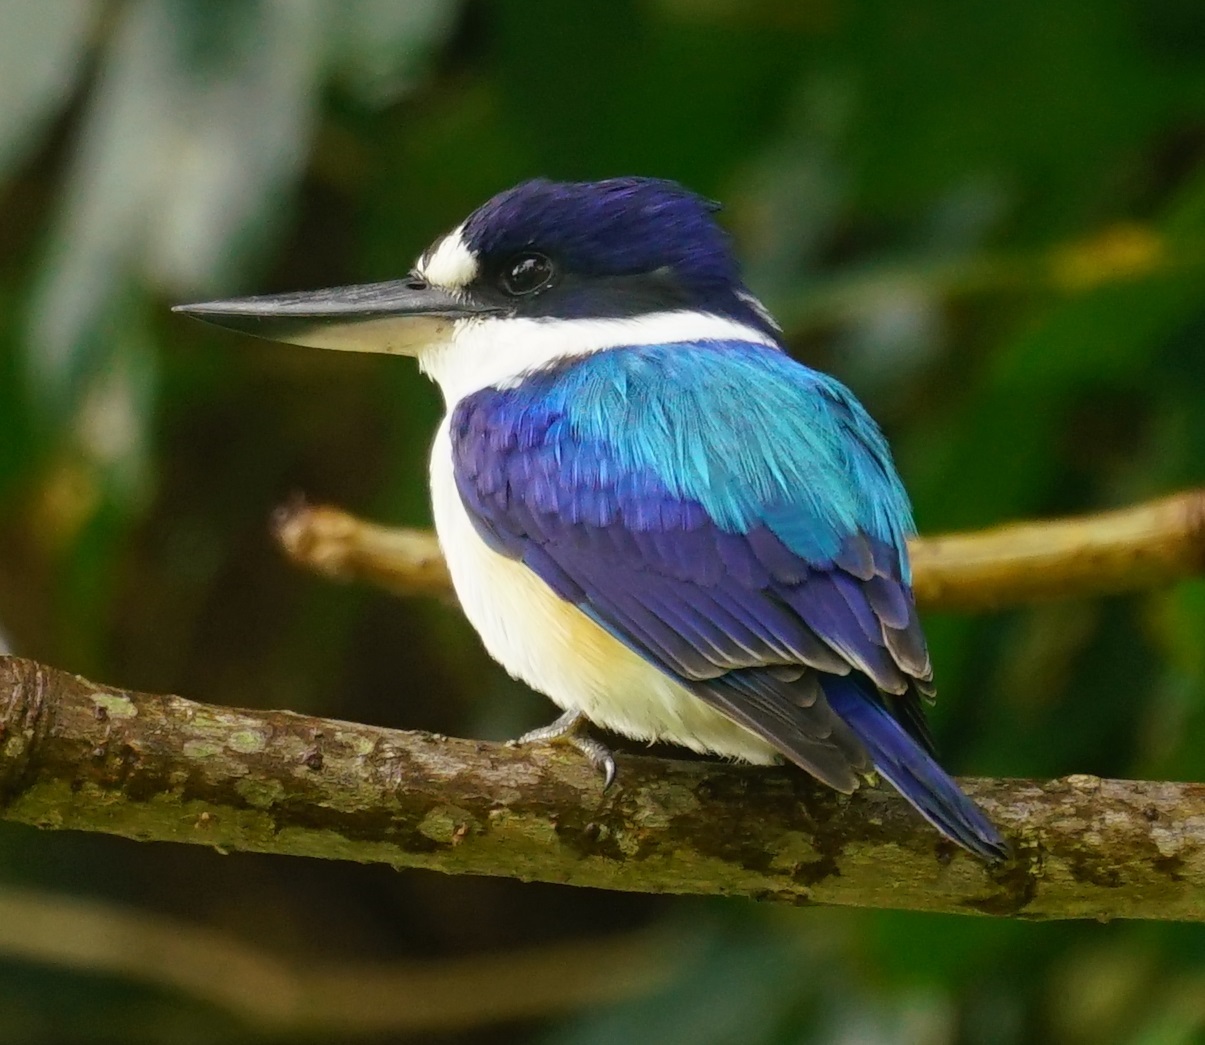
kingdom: Animalia
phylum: Chordata
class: Aves
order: Coraciiformes
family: Alcedinidae
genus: Todiramphus
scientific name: Todiramphus macleayii
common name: Forest kingfisher
